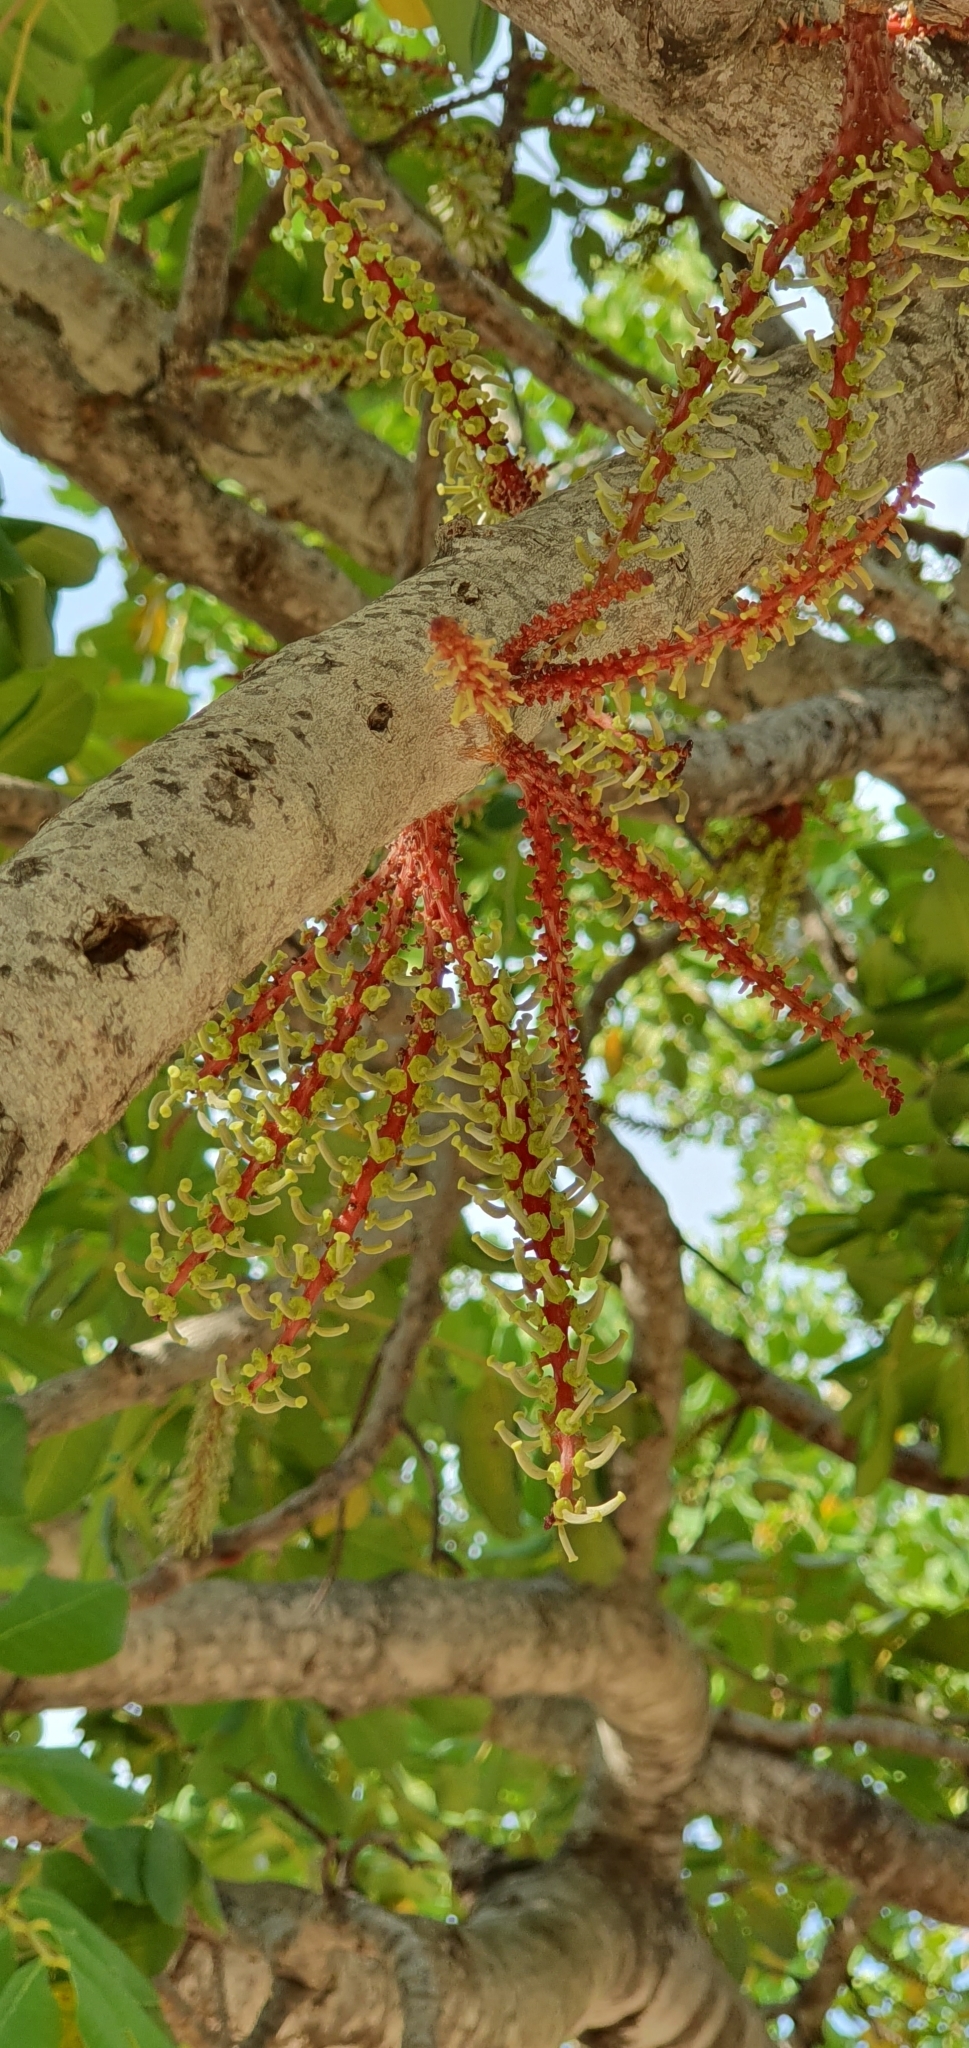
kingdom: Plantae
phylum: Tracheophyta
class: Magnoliopsida
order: Fabales
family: Fabaceae
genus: Ceratonia
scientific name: Ceratonia siliqua
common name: Carob
